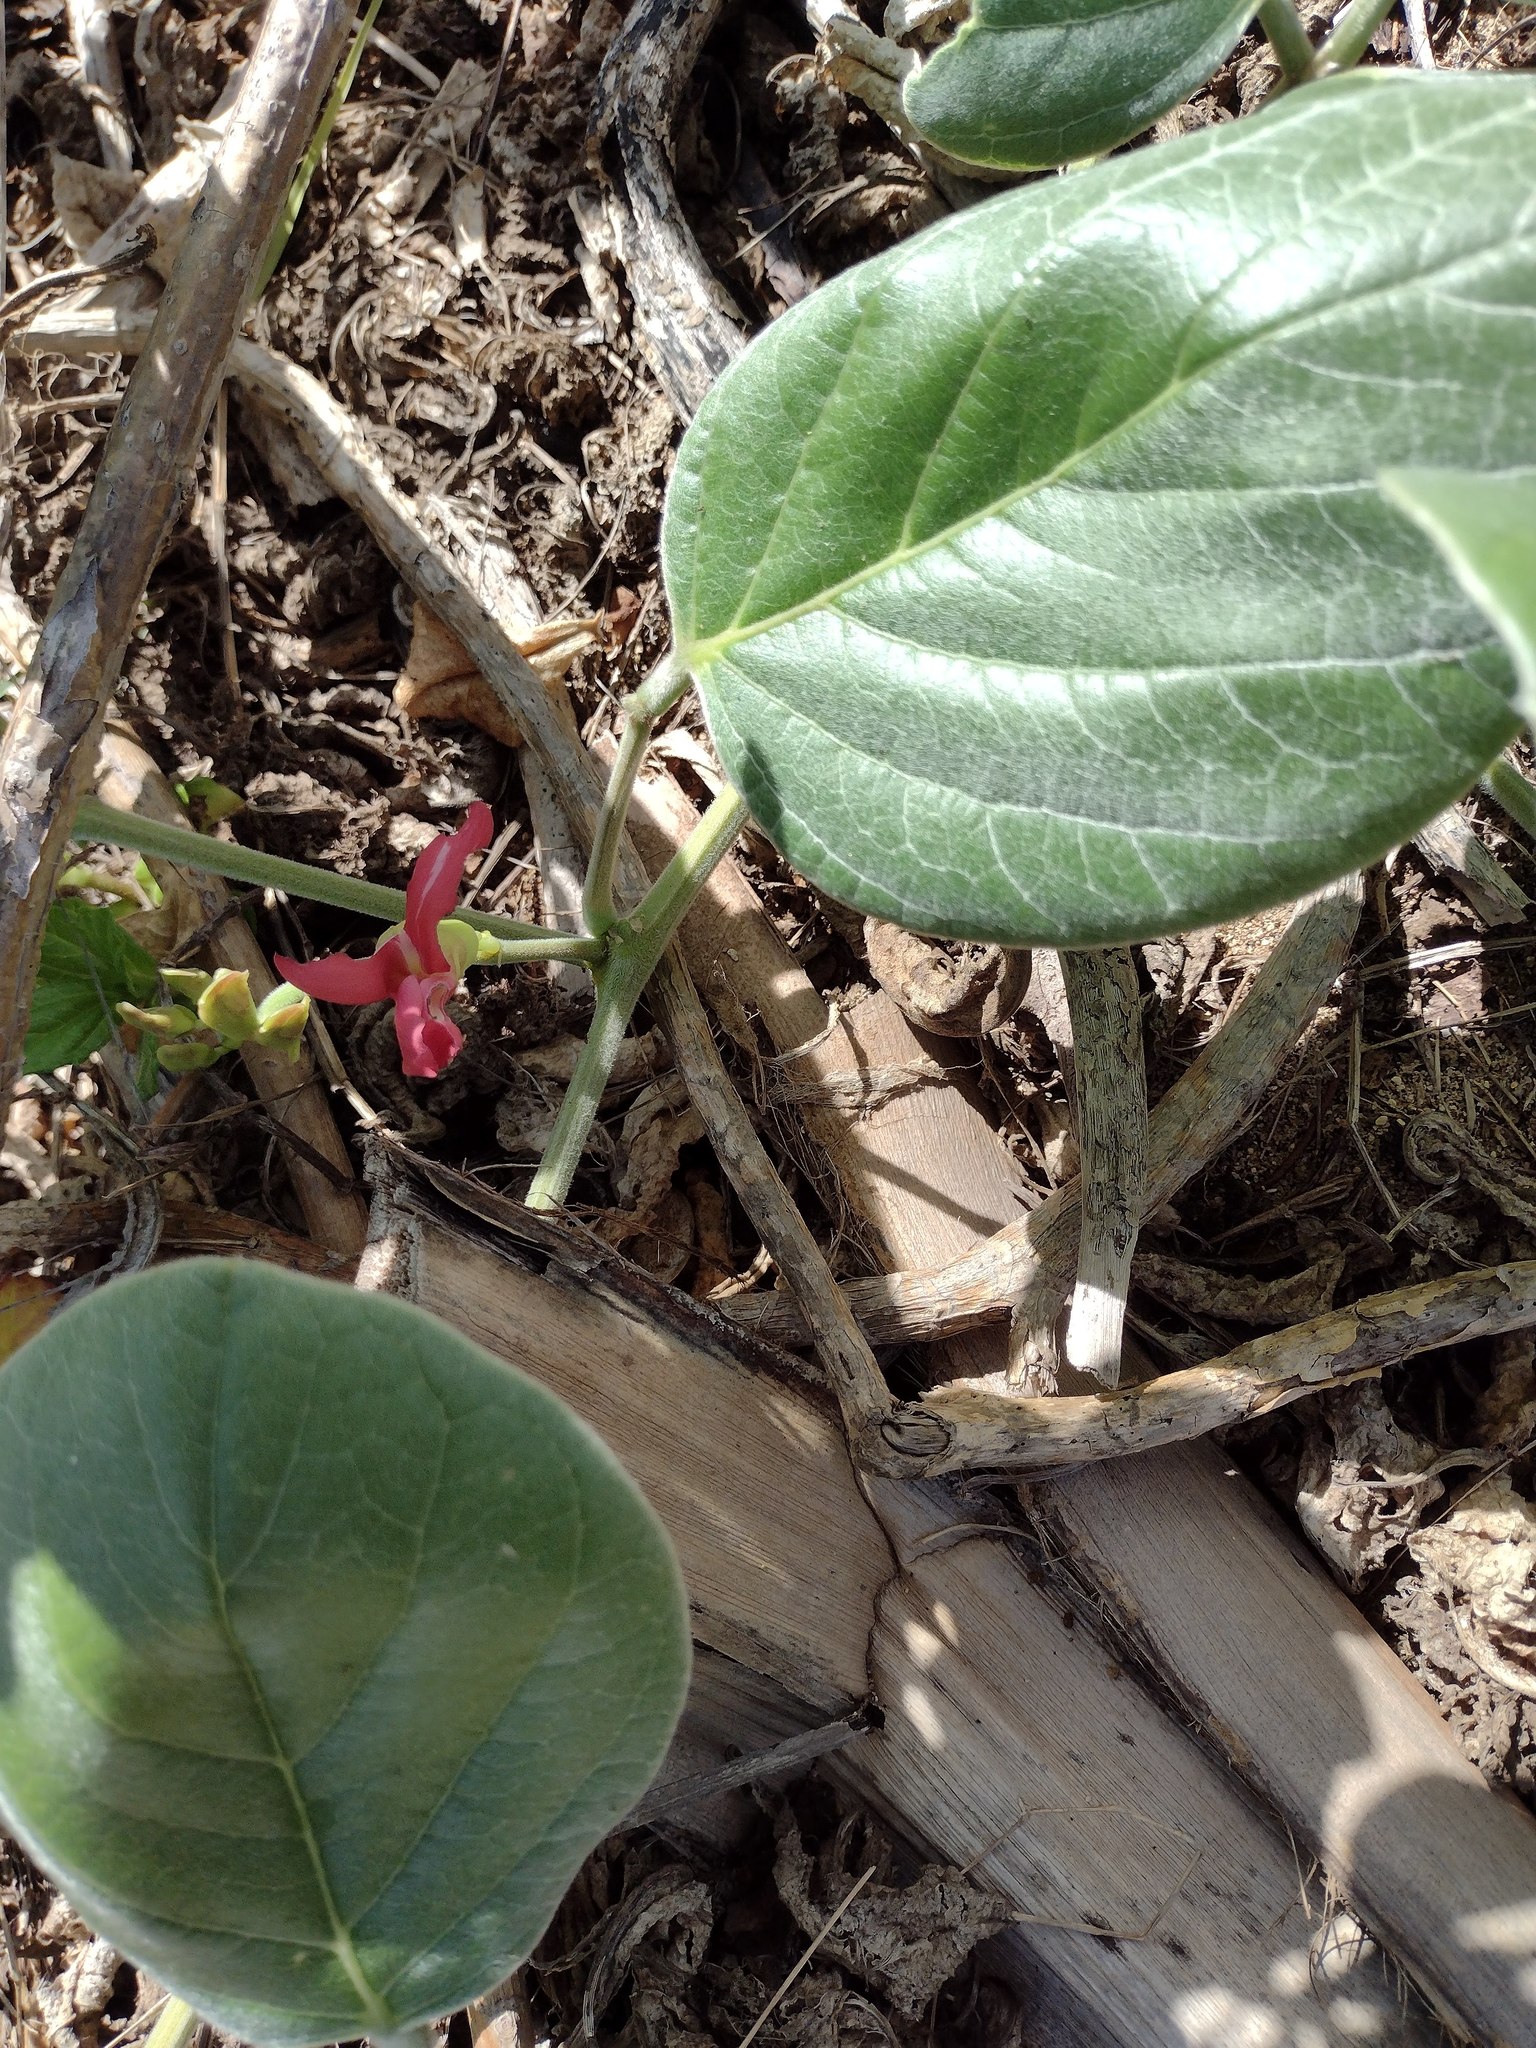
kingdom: Plantae
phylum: Tracheophyta
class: Magnoliopsida
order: Fabales
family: Fabaceae
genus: Canavalia
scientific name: Canavalia sericea
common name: Silky jackbean
